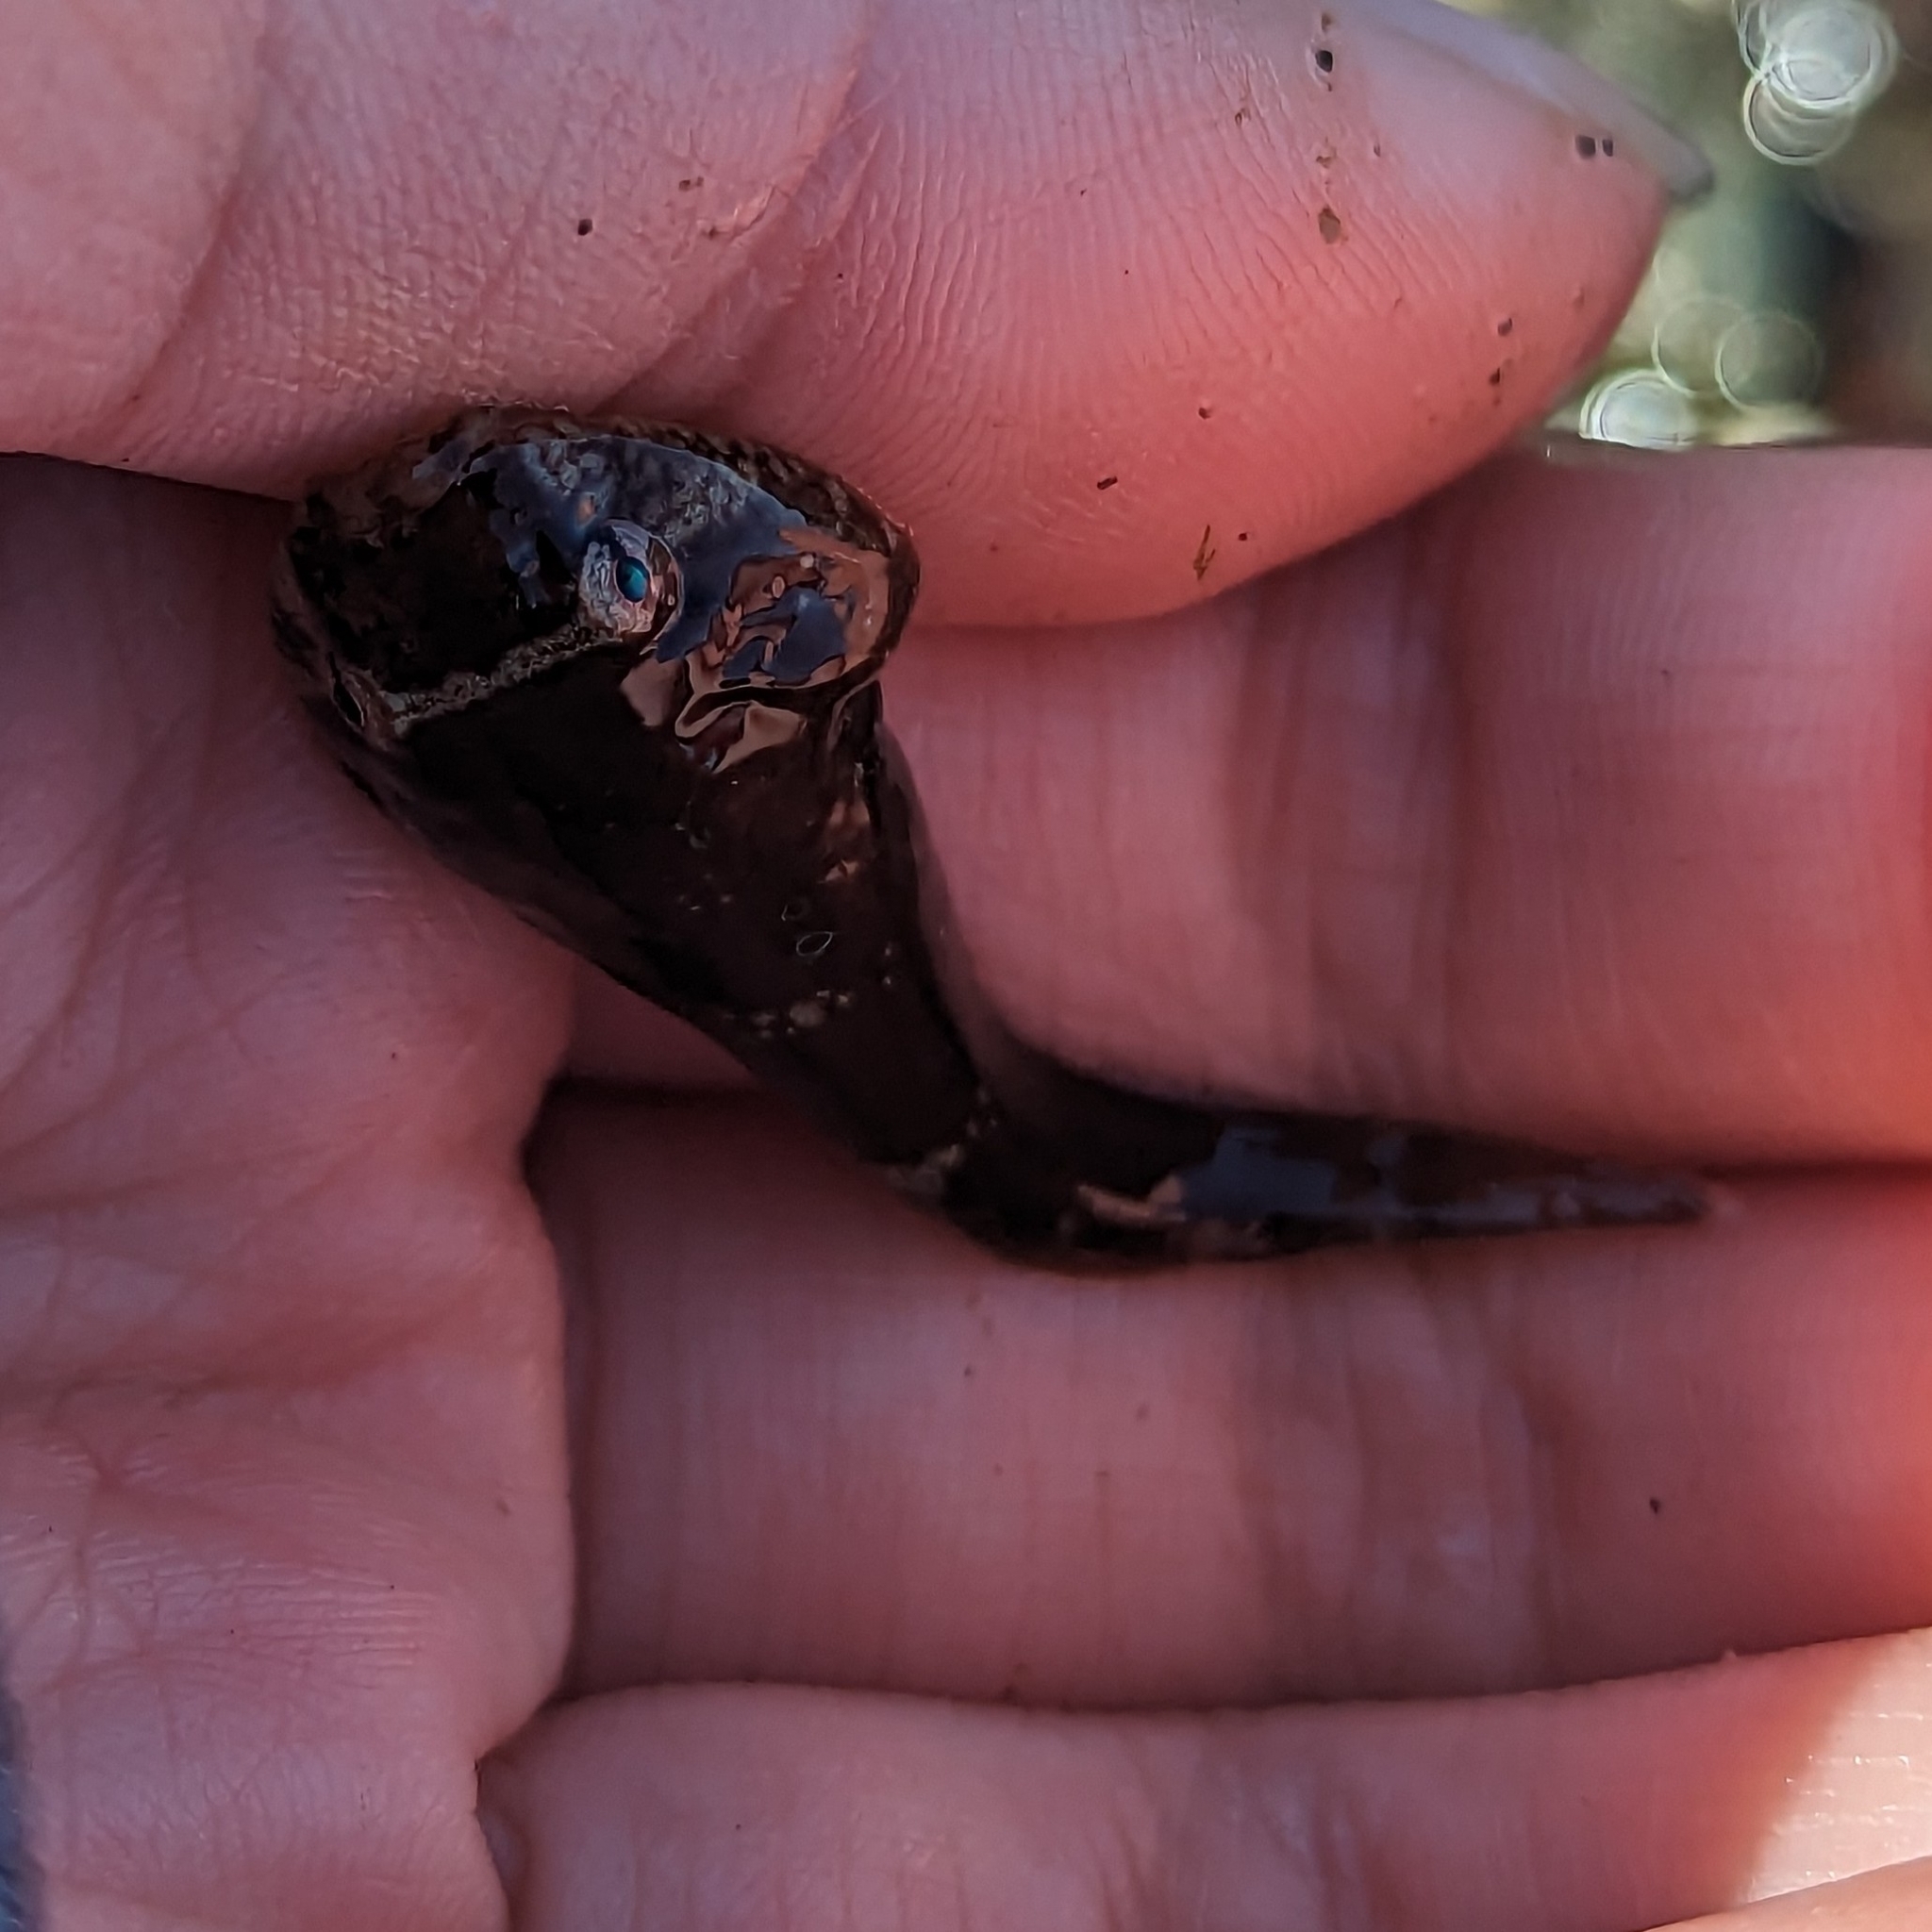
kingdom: Animalia
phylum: Chordata
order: Gobiesociformes
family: Gobiesocidae
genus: Gobiesox
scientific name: Gobiesox maeandricus
